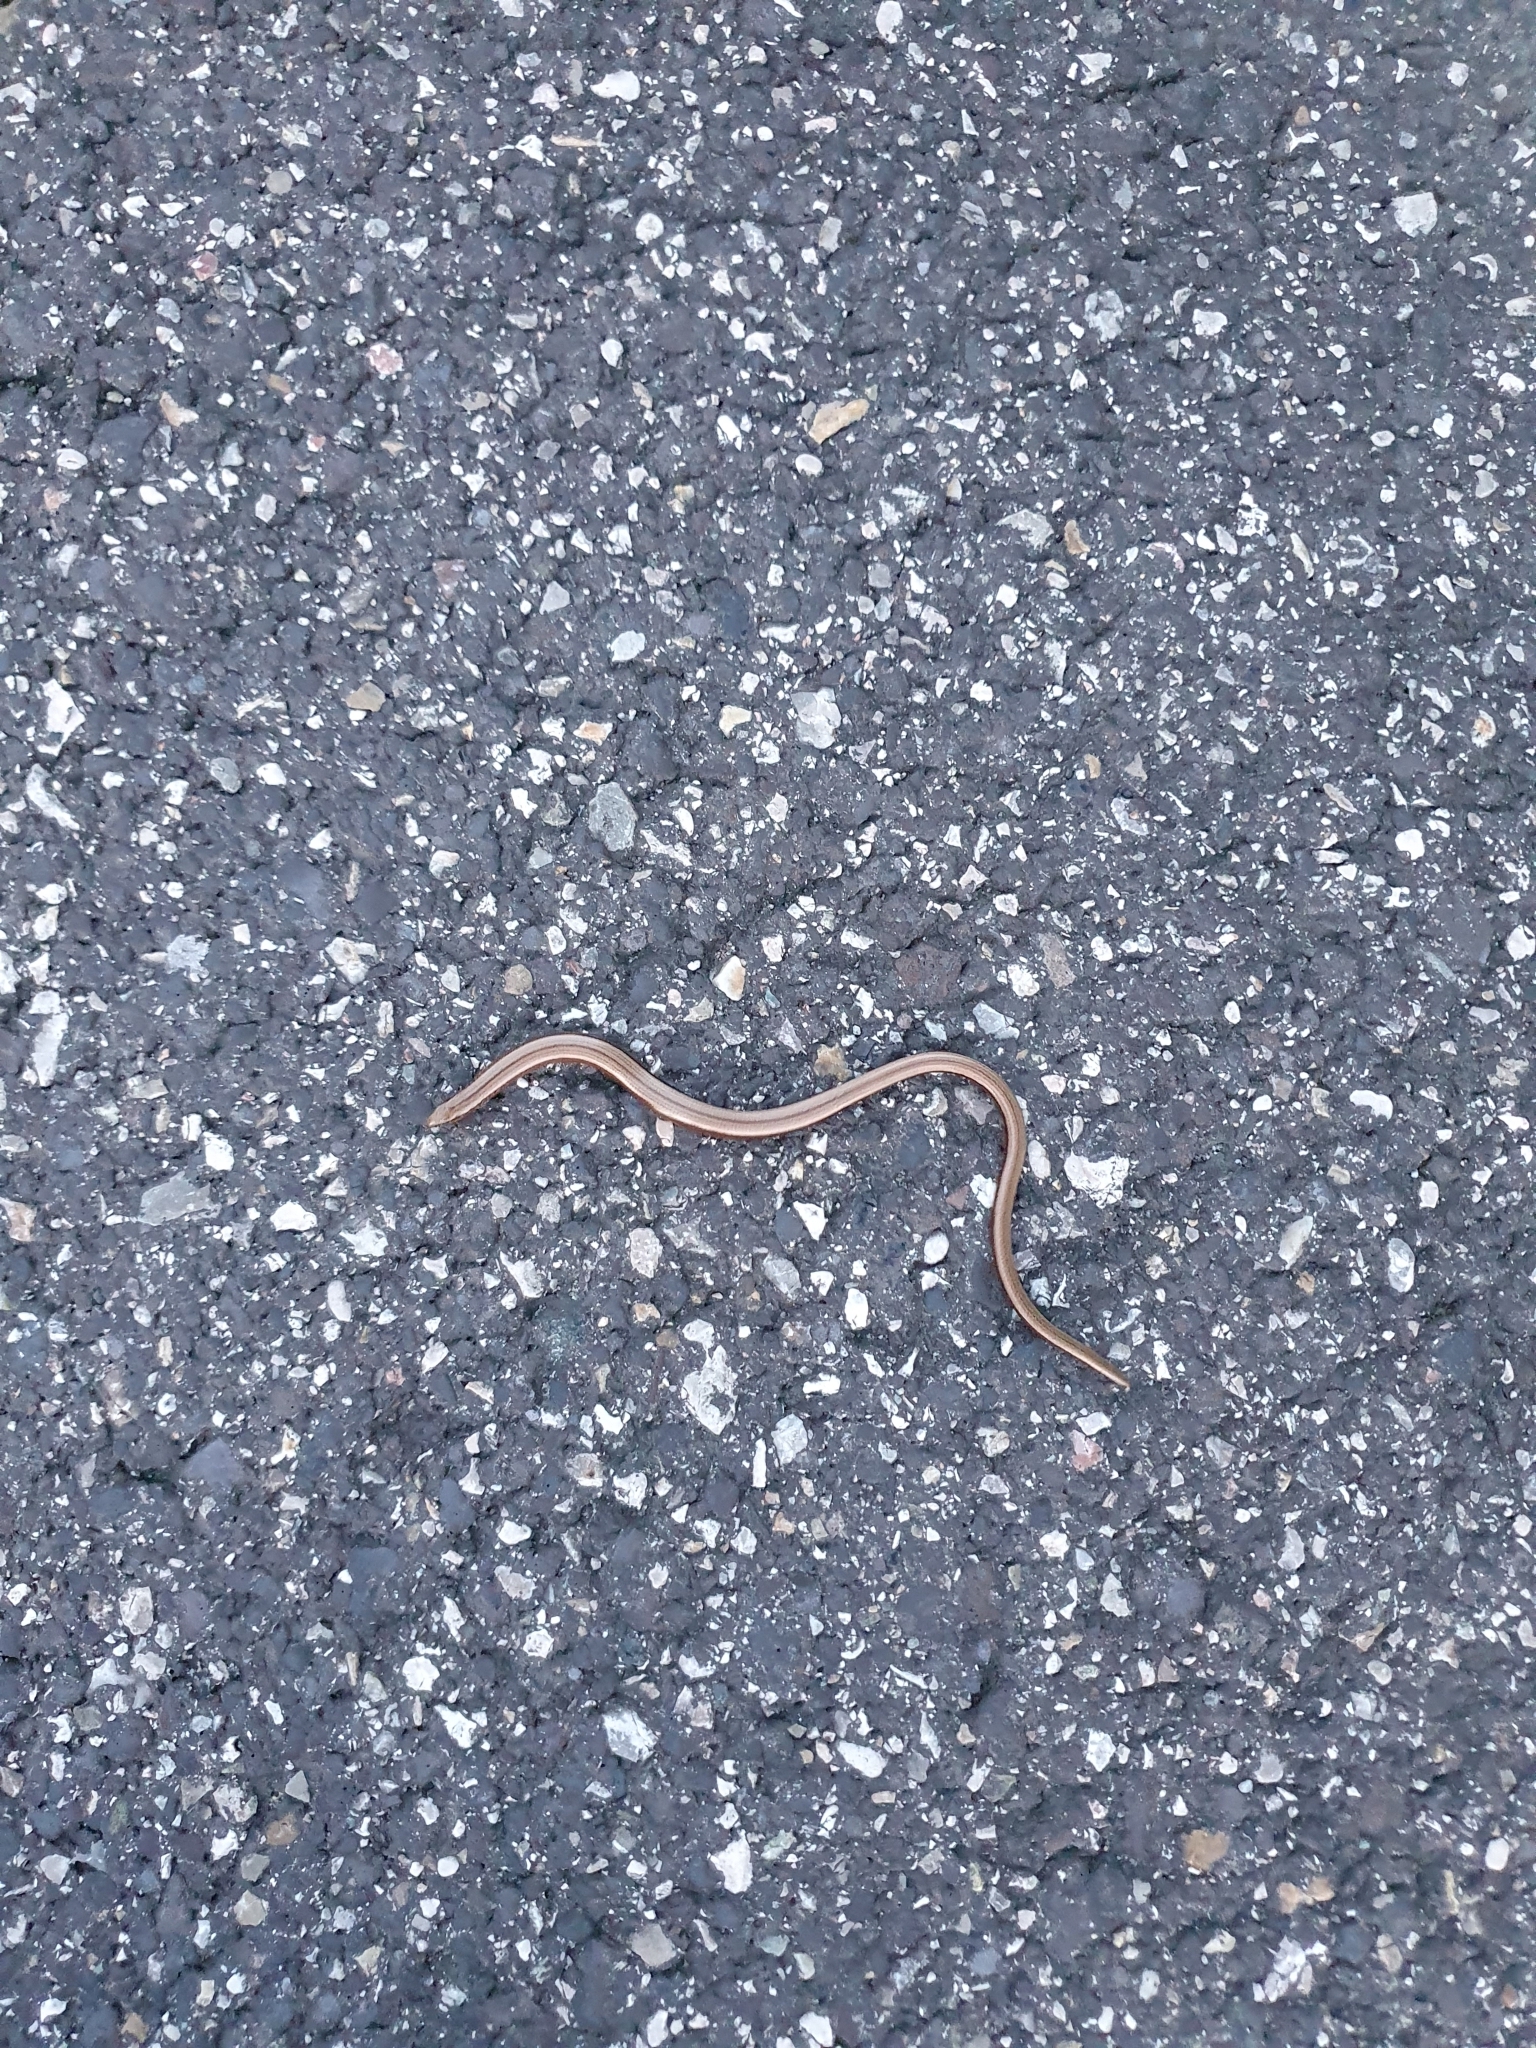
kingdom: Animalia
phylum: Chordata
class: Squamata
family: Anguidae
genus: Anguis
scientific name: Anguis fragilis
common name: Slow worm
